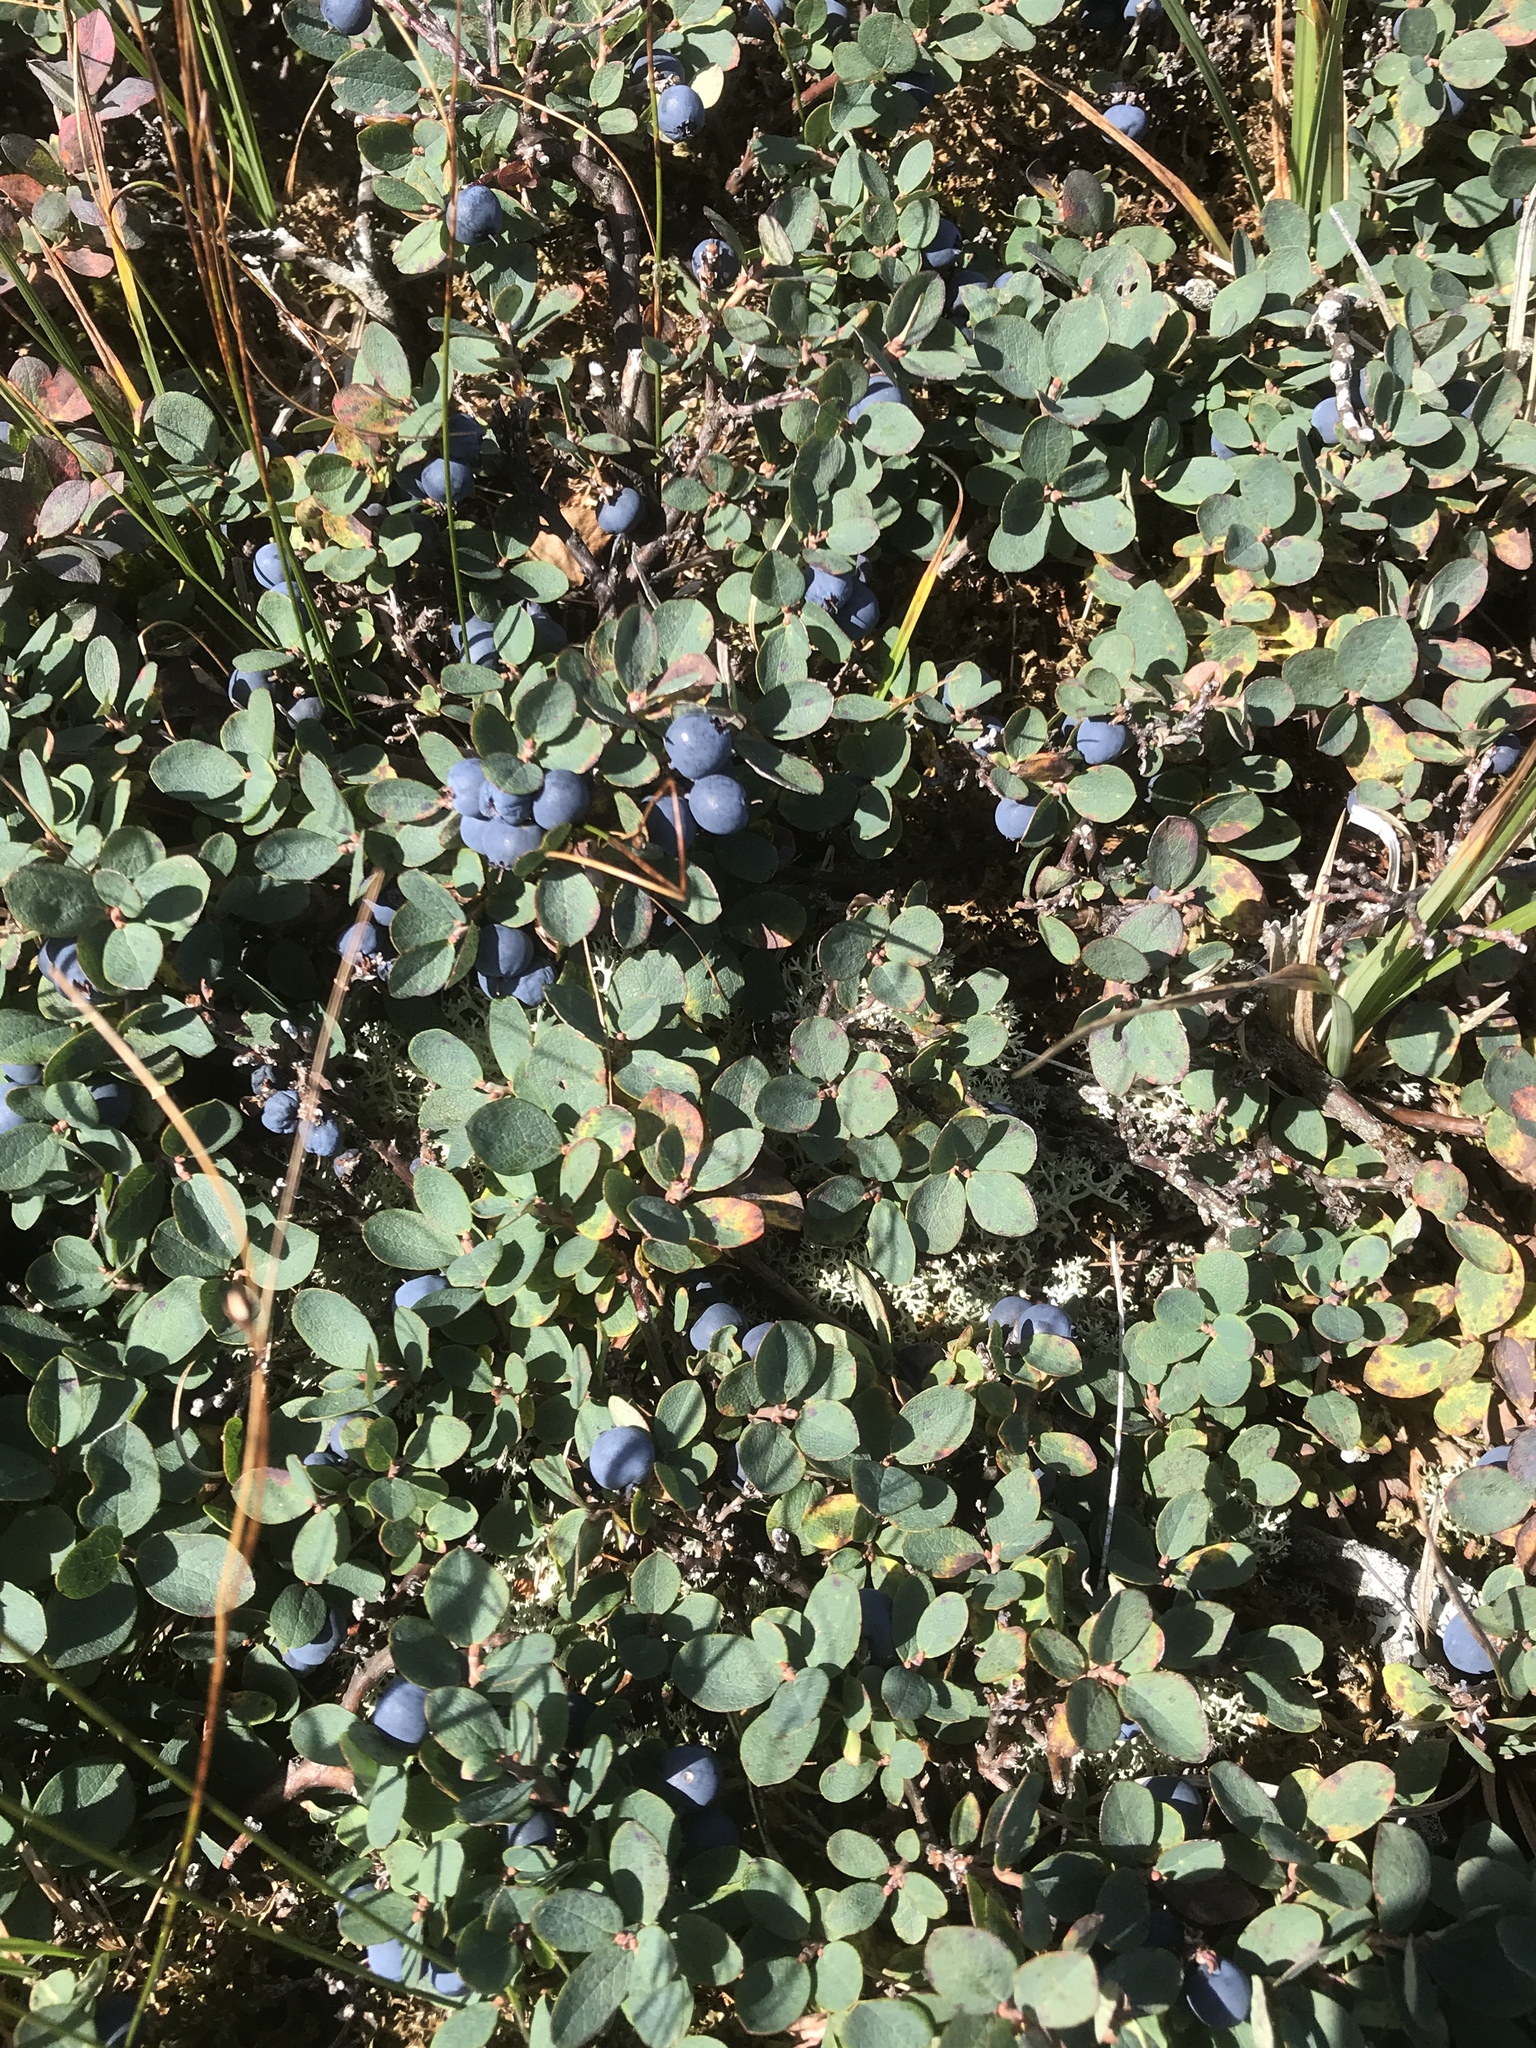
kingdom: Plantae
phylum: Tracheophyta
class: Magnoliopsida
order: Ericales
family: Ericaceae
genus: Vaccinium
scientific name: Vaccinium uliginosum
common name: Bog bilberry
